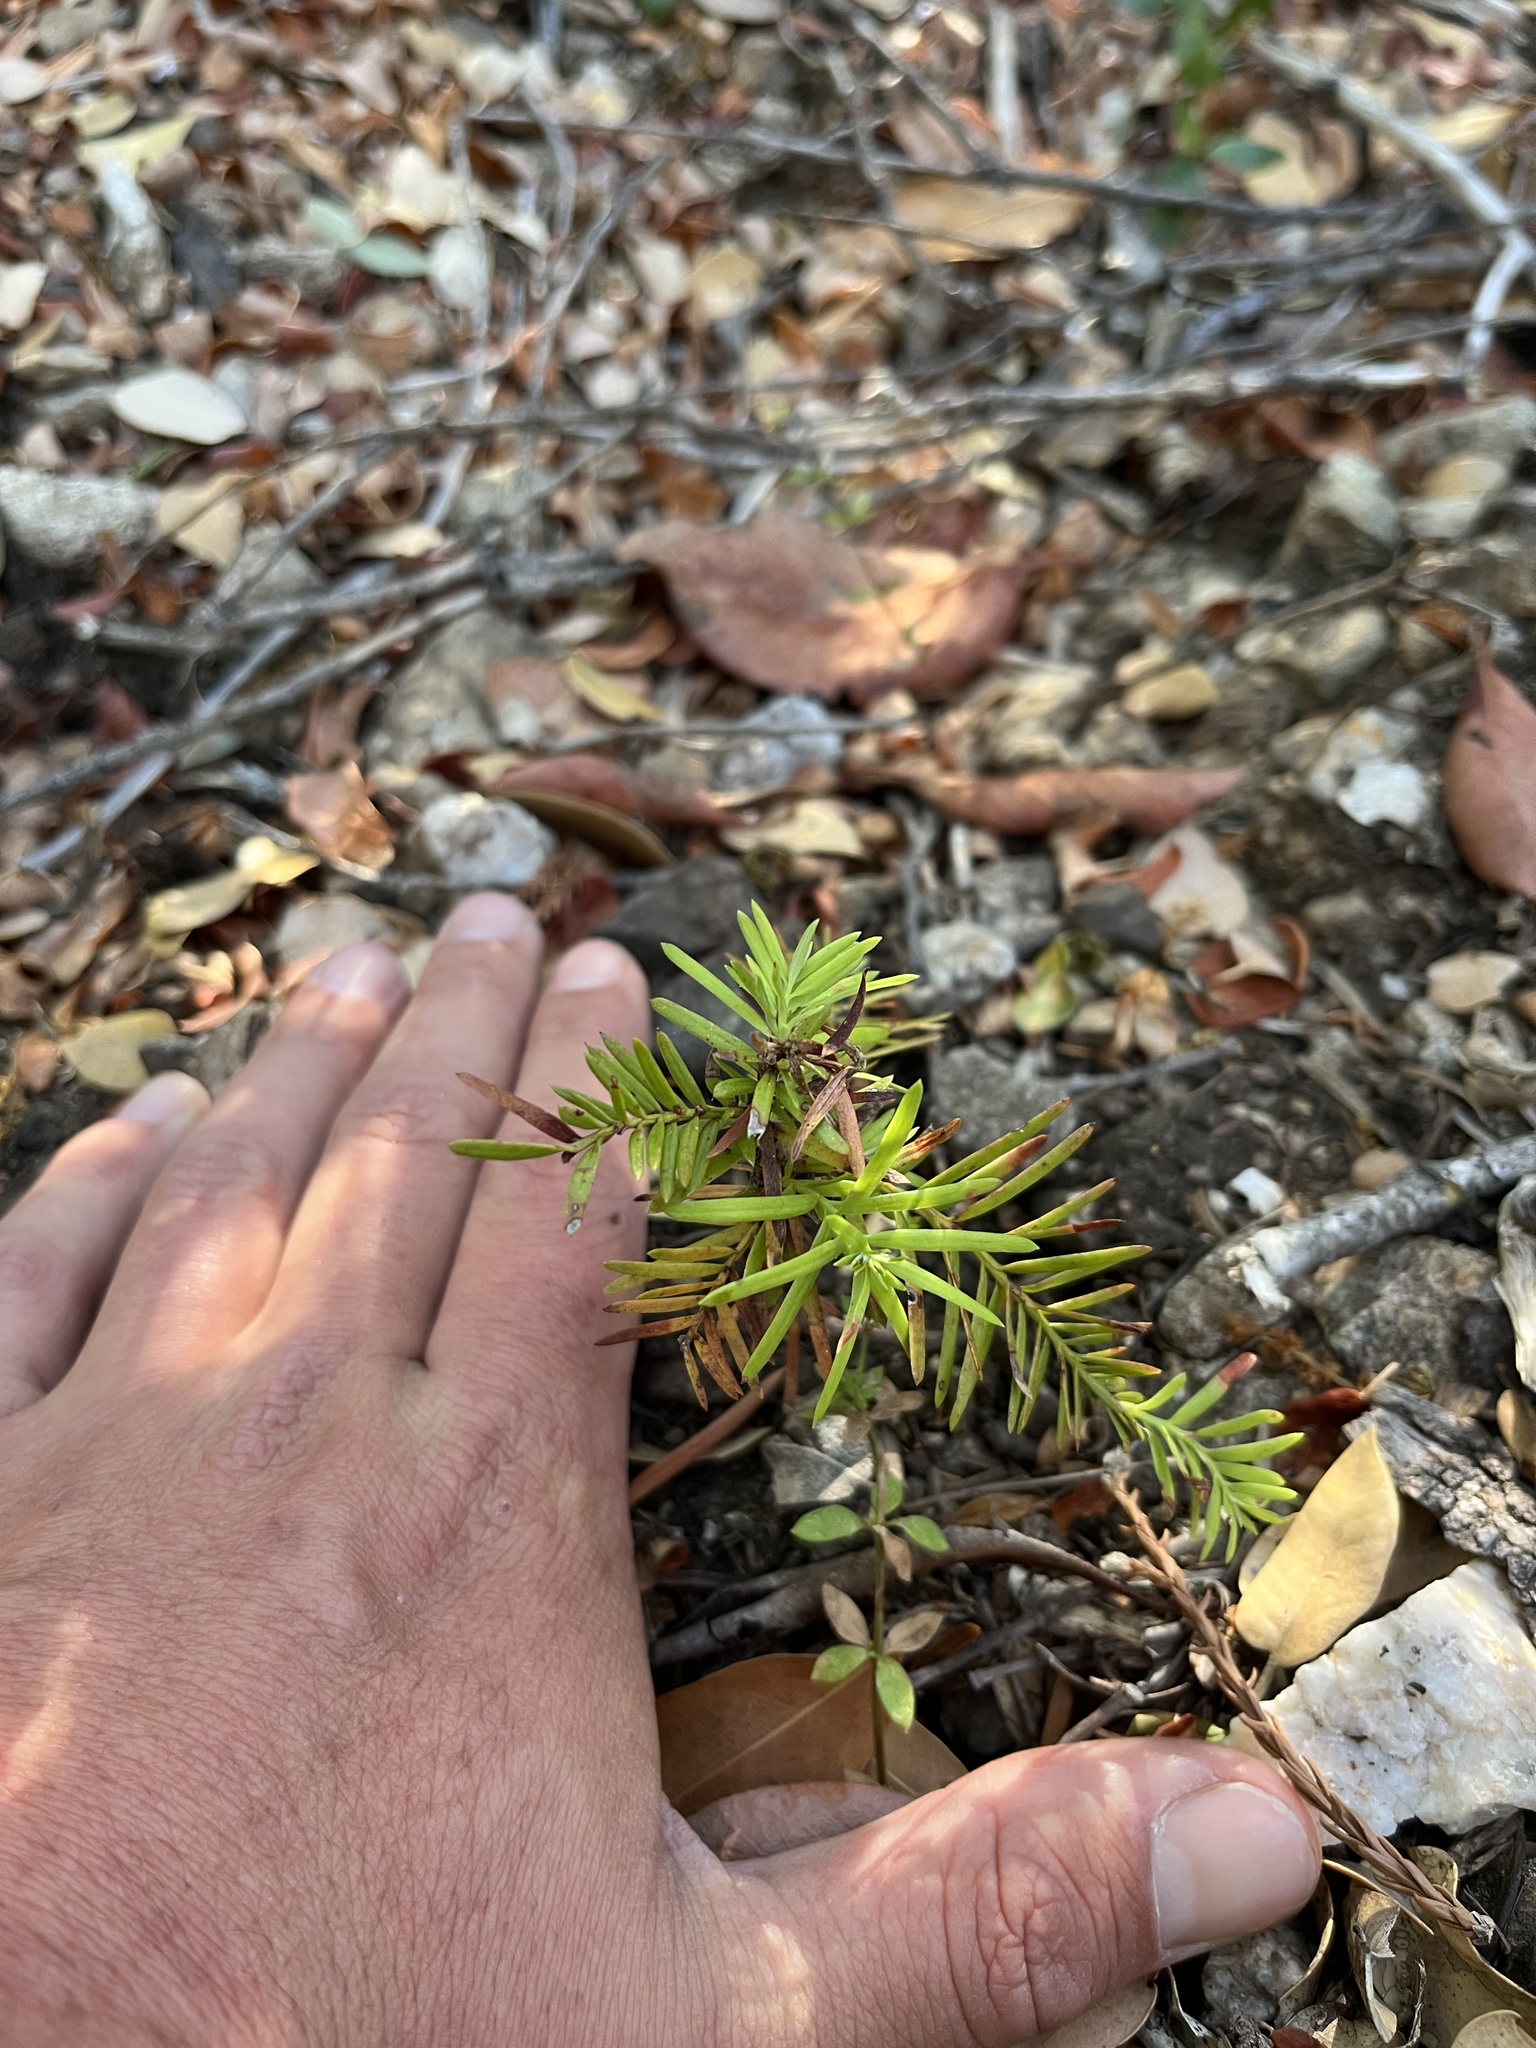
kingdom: Plantae
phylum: Tracheophyta
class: Pinopsida
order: Pinales
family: Pinaceae
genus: Abies
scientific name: Abies bracteata
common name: Bristlecone fir
